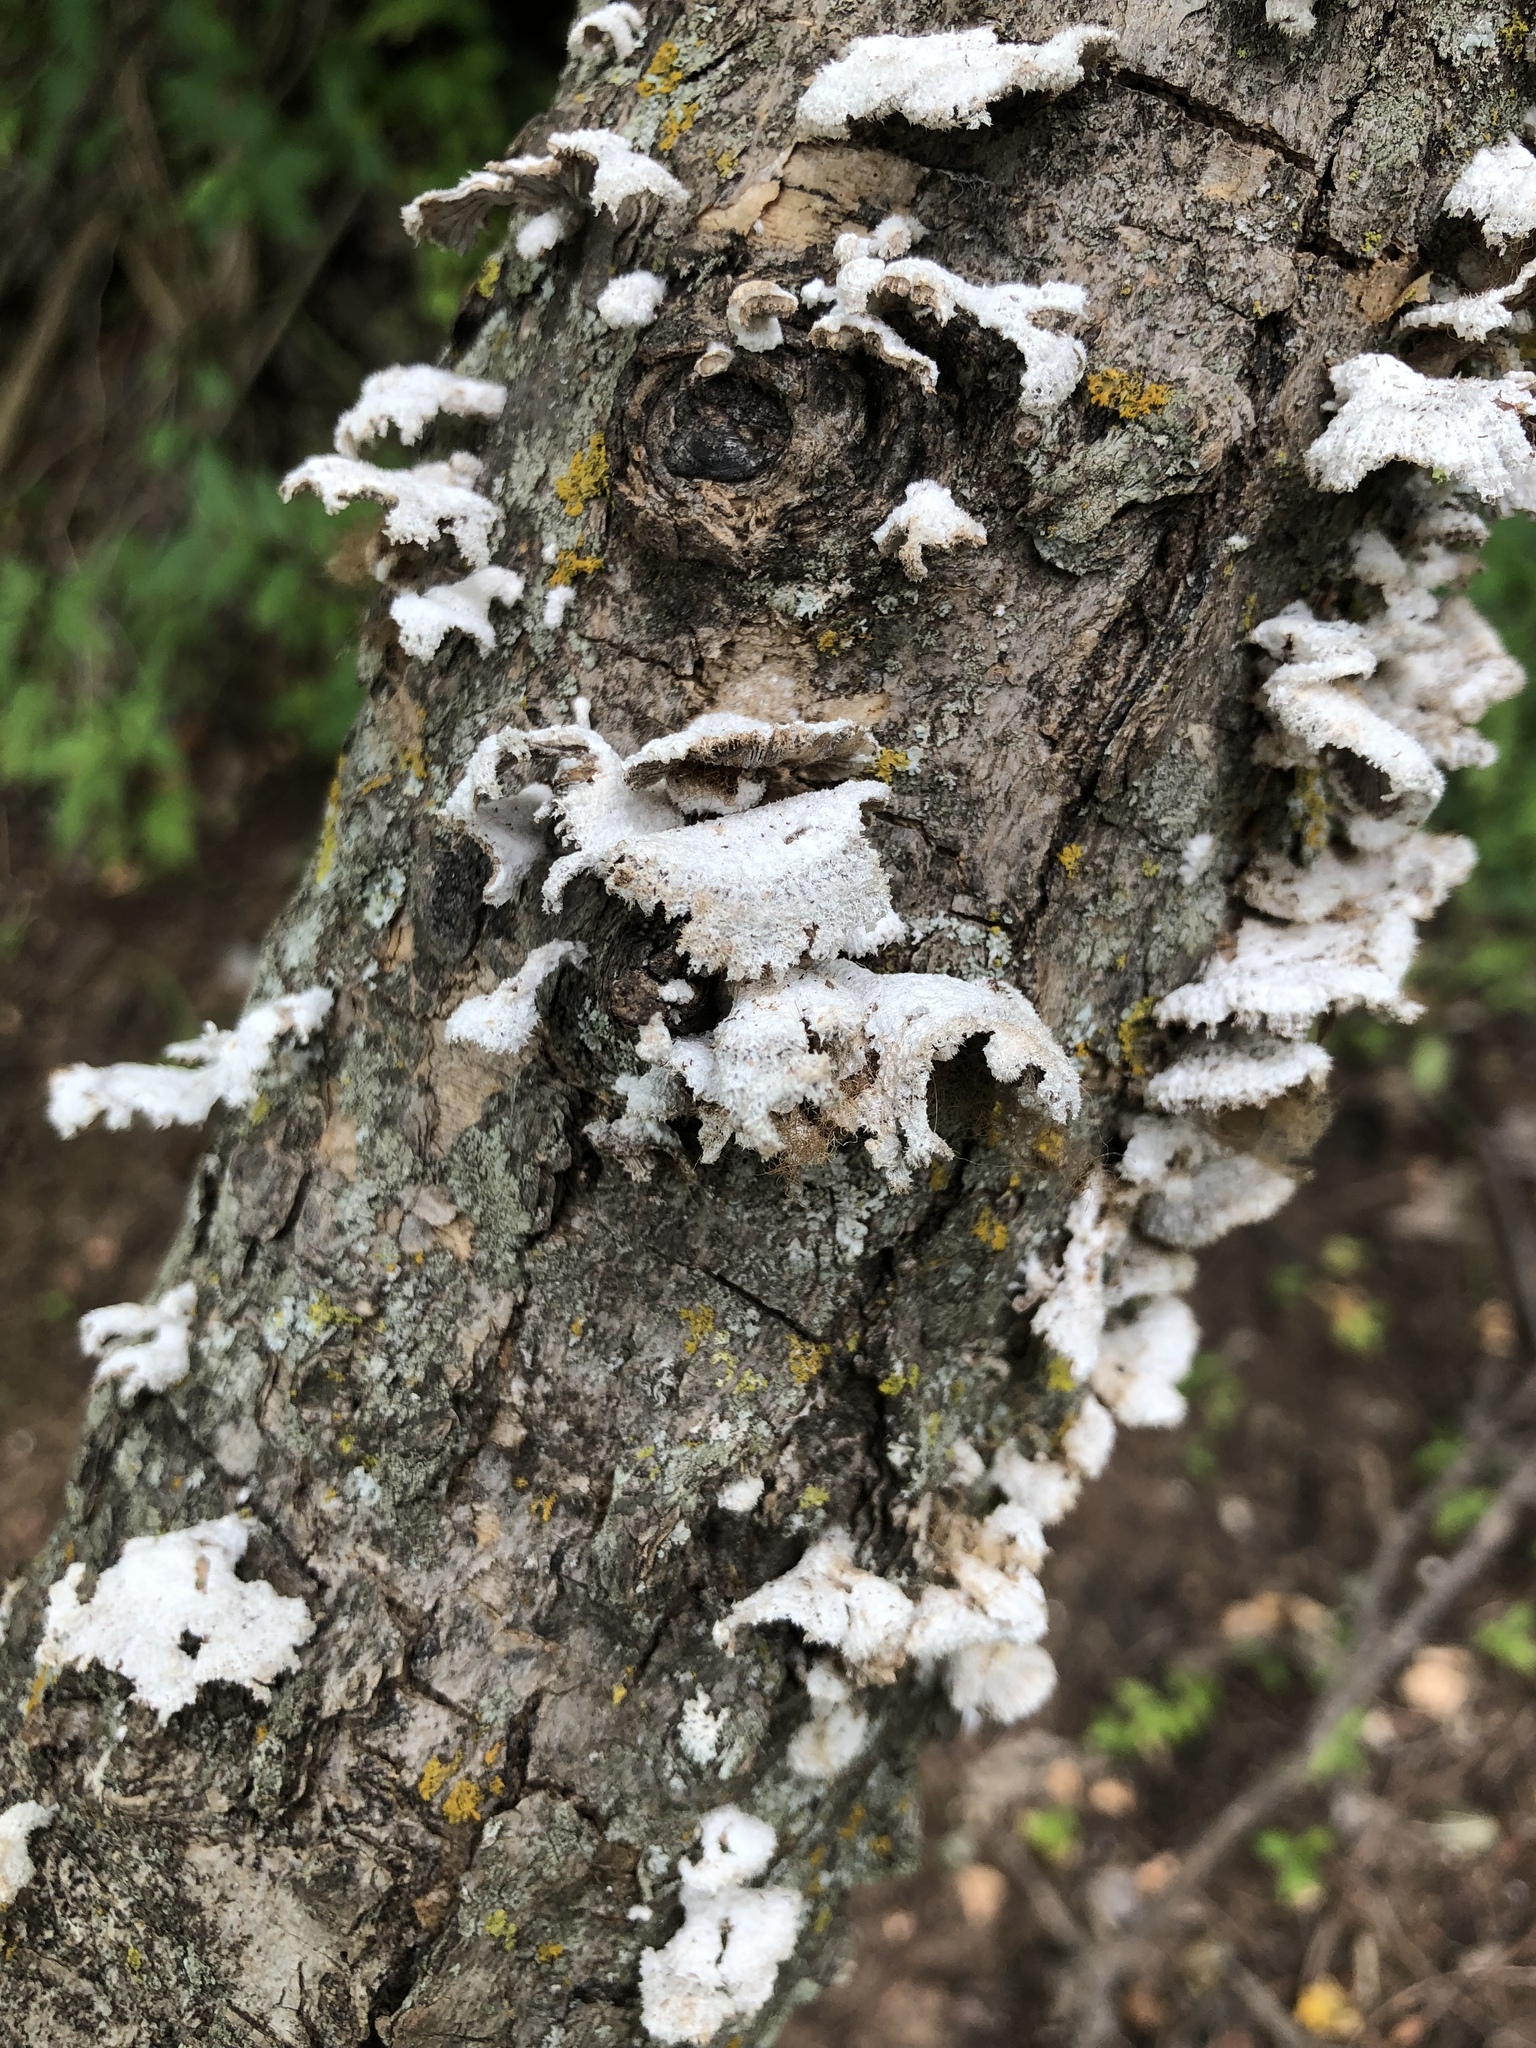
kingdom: Fungi
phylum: Basidiomycota
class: Agaricomycetes
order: Agaricales
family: Schizophyllaceae
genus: Schizophyllum
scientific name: Schizophyllum commune
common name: Common porecrust
